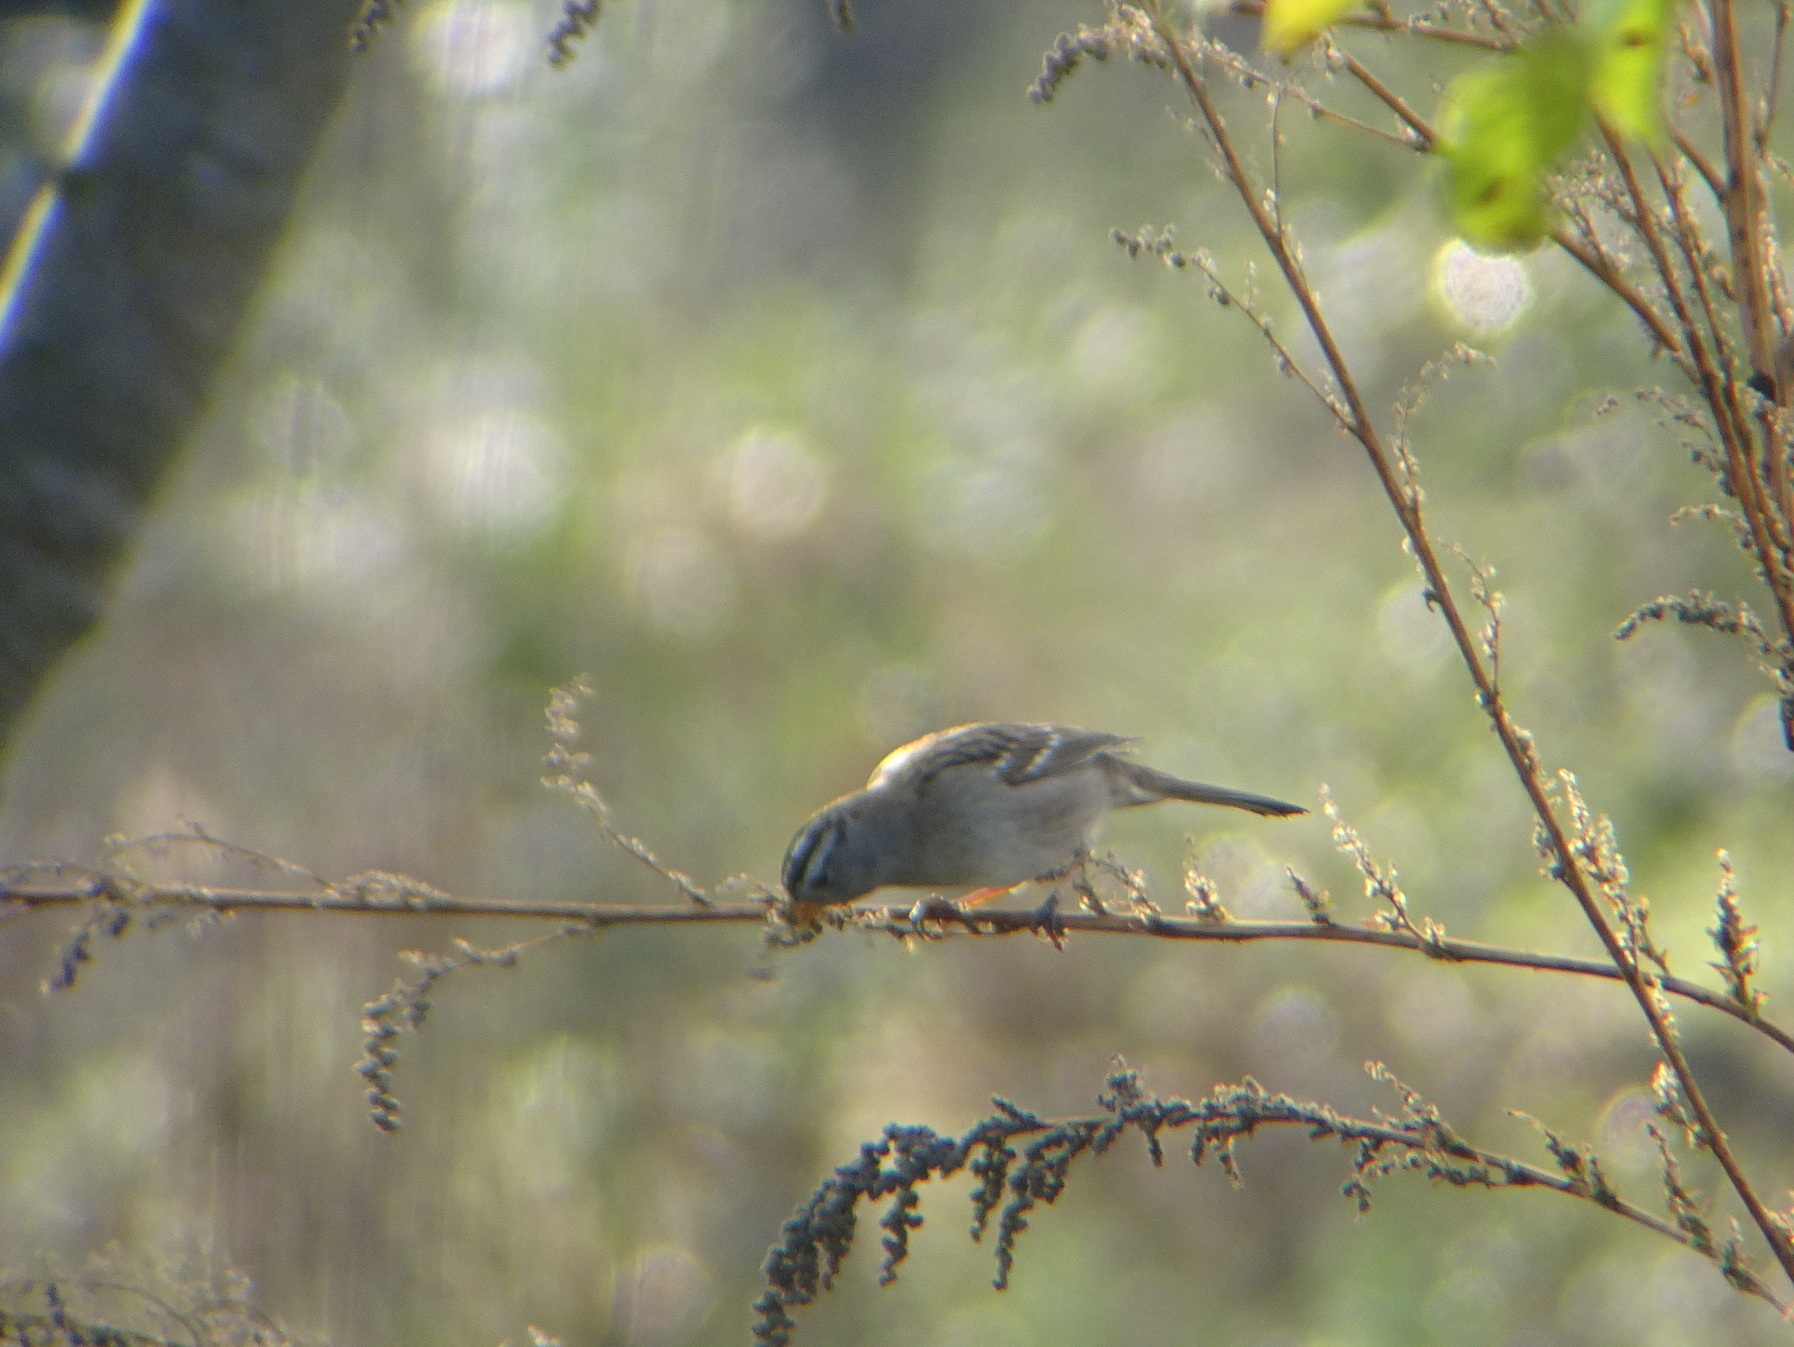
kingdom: Animalia
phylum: Chordata
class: Aves
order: Passeriformes
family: Passerellidae
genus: Zonotrichia
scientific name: Zonotrichia leucophrys
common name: White-crowned sparrow
